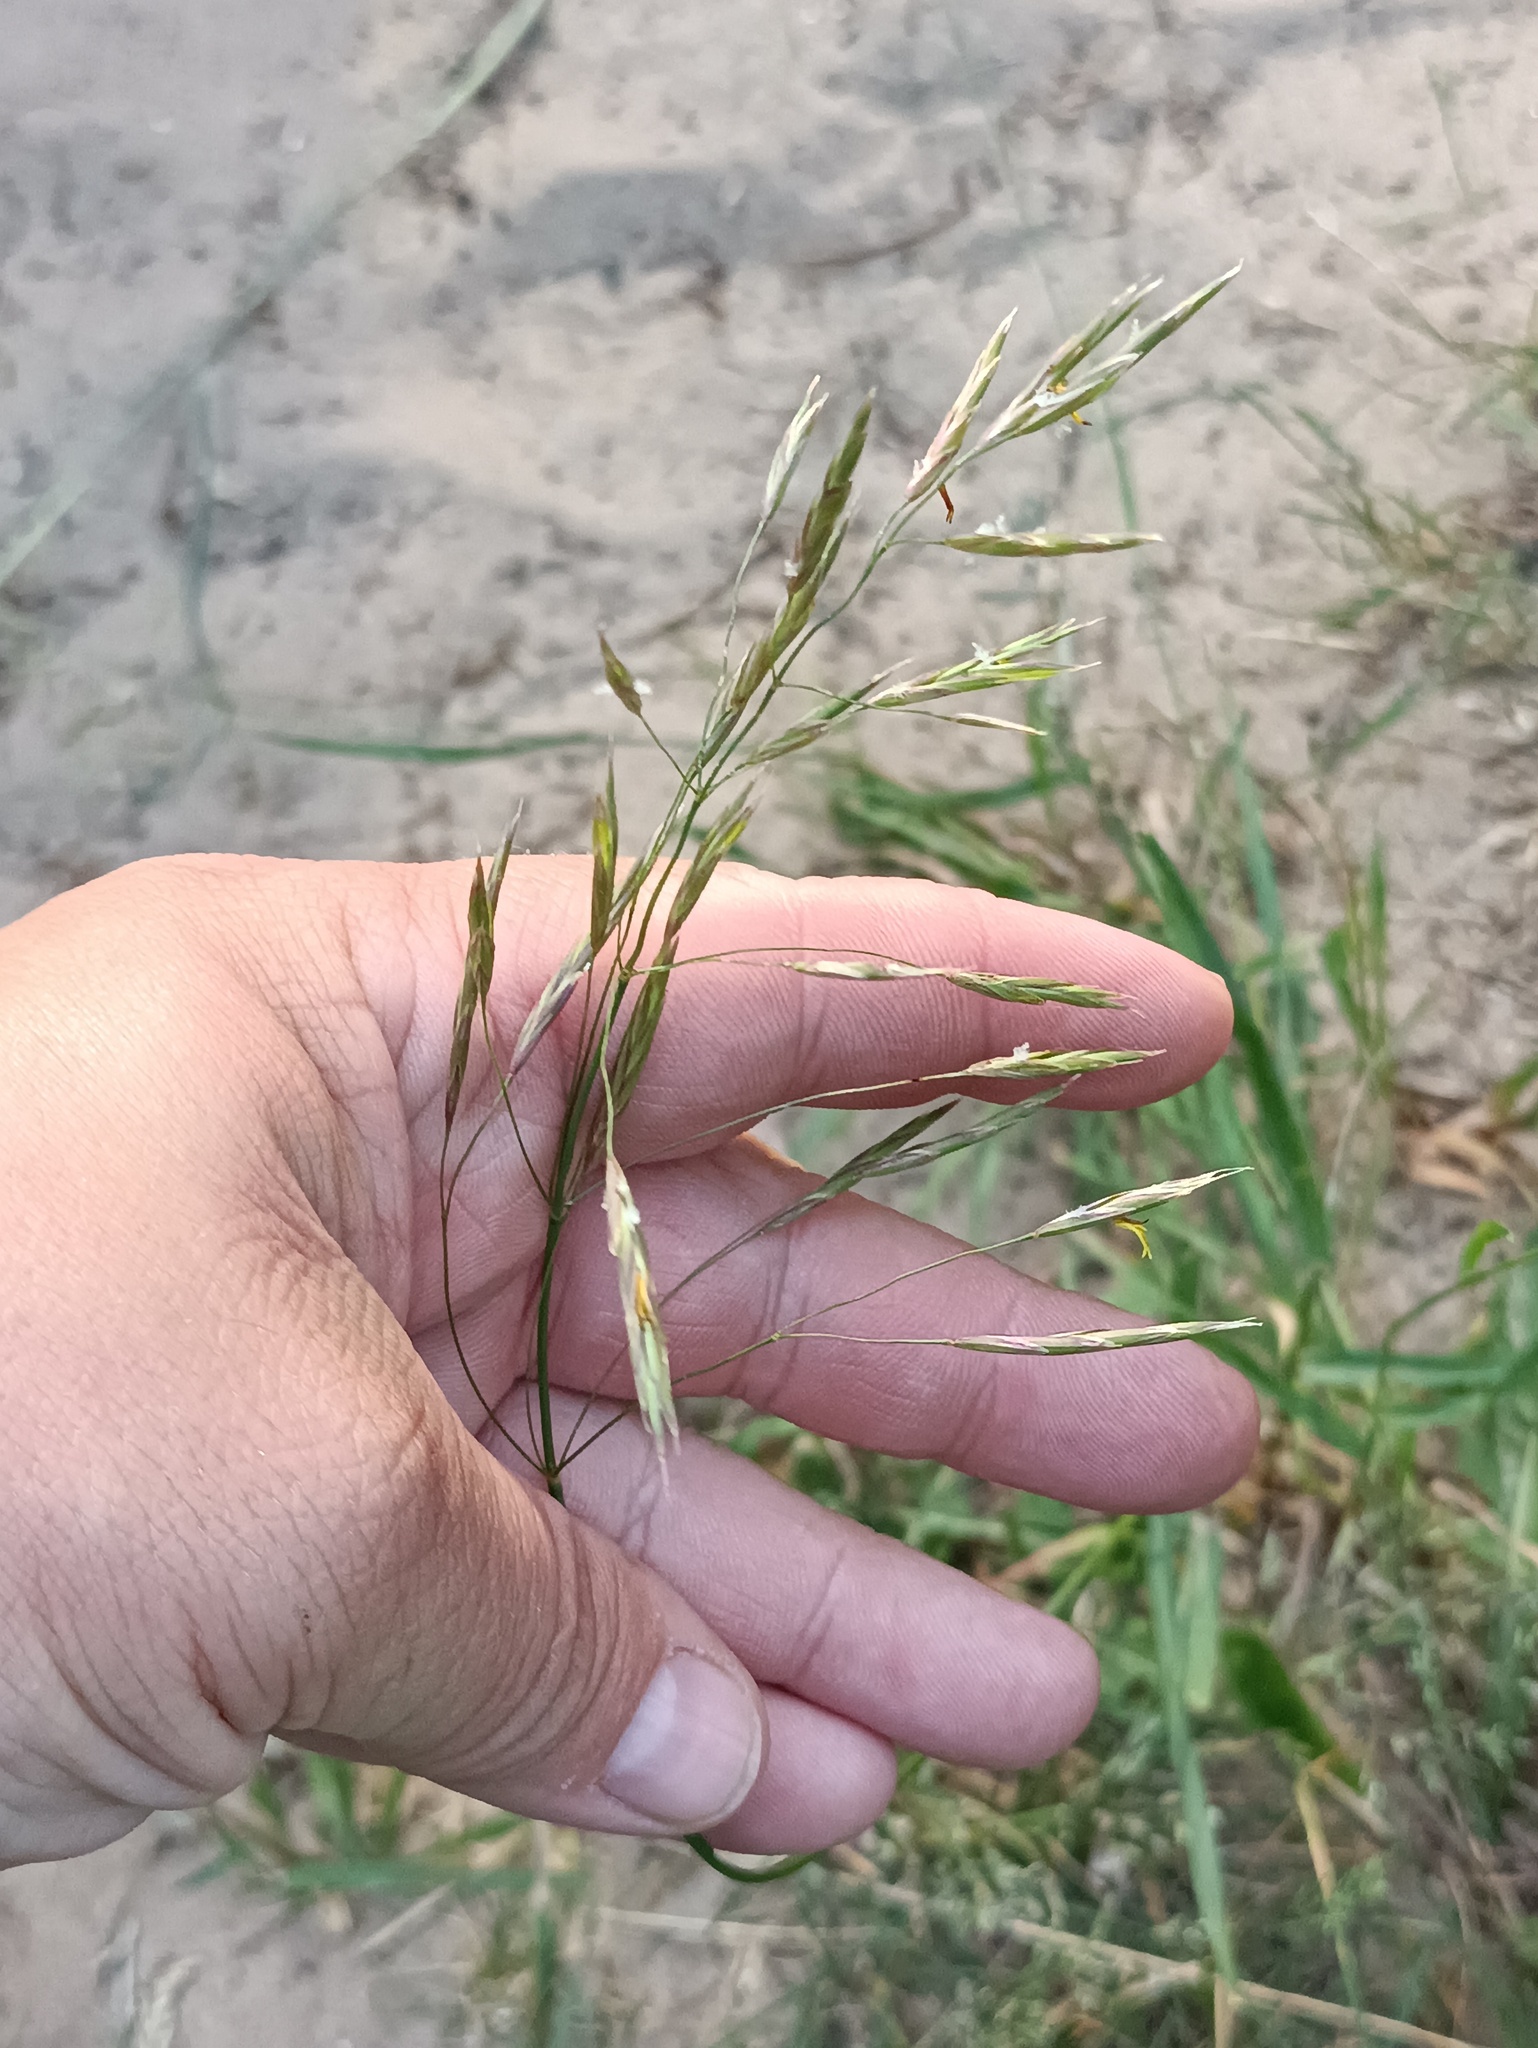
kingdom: Plantae
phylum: Tracheophyta
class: Liliopsida
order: Poales
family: Poaceae
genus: Bromus
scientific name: Bromus inermis
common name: Smooth brome
